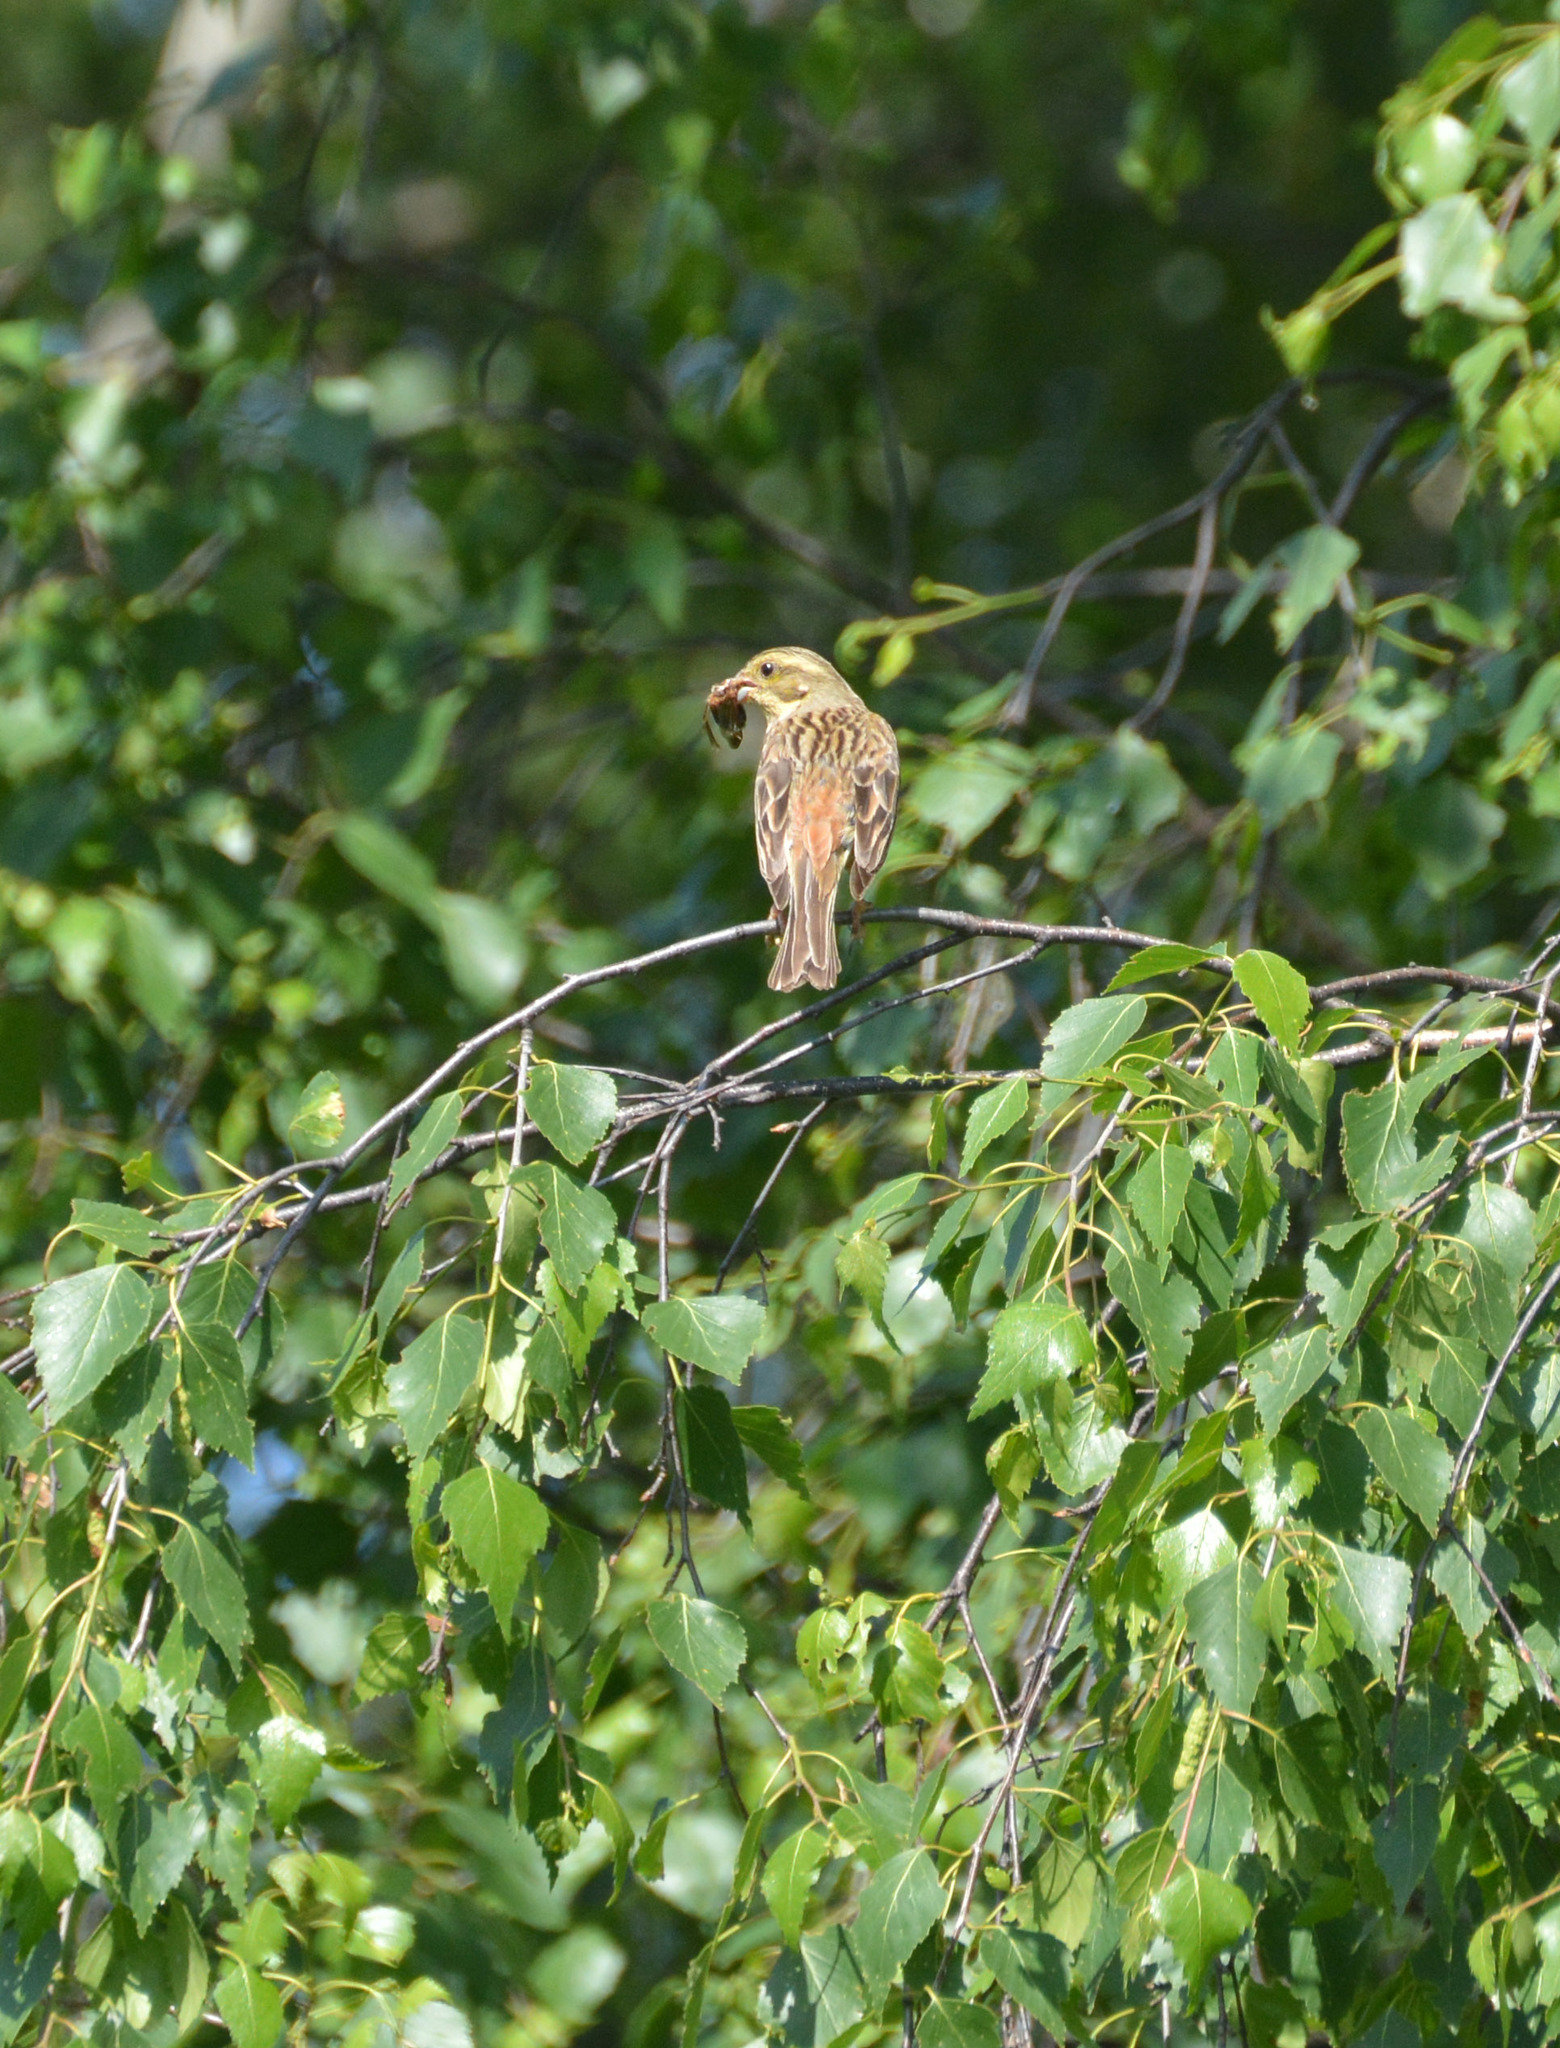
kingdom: Animalia
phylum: Chordata
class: Aves
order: Passeriformes
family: Emberizidae
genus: Emberiza
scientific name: Emberiza citrinella
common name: Yellowhammer
